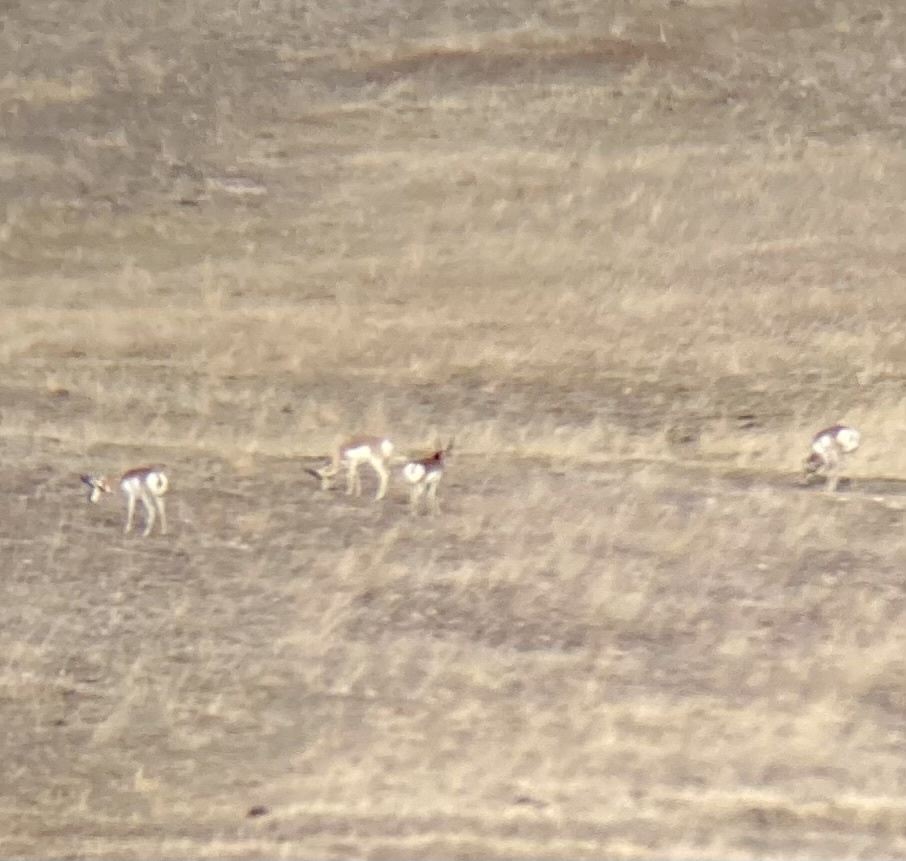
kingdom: Animalia
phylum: Chordata
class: Mammalia
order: Artiodactyla
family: Antilocapridae
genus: Antilocapra
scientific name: Antilocapra americana
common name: Pronghorn
